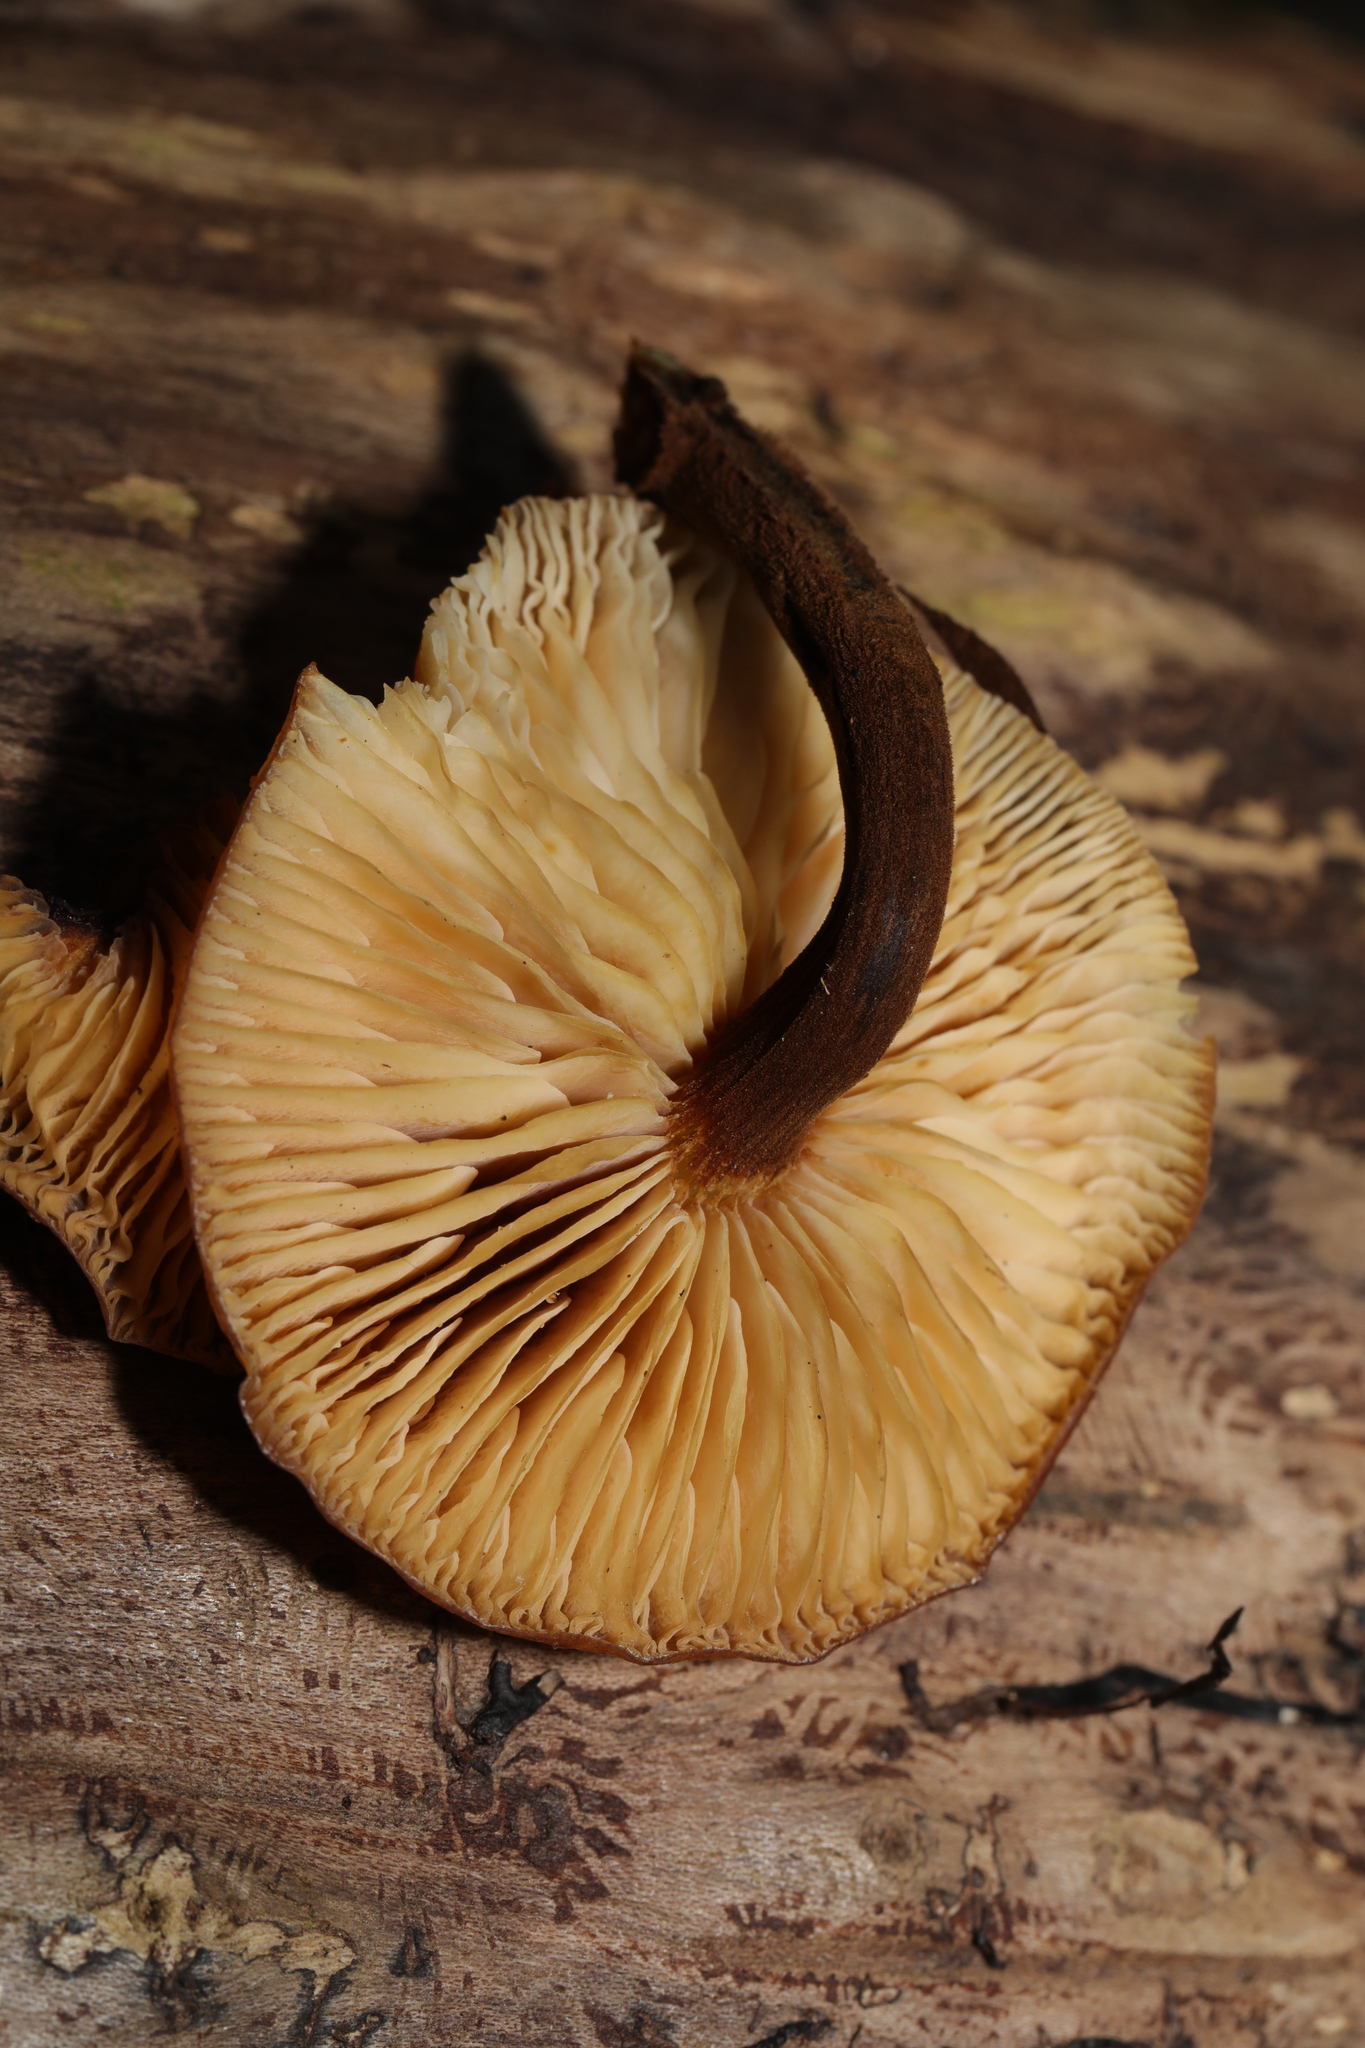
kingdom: Fungi
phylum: Basidiomycota
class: Agaricomycetes
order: Agaricales
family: Physalacriaceae
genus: Flammulina
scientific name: Flammulina
